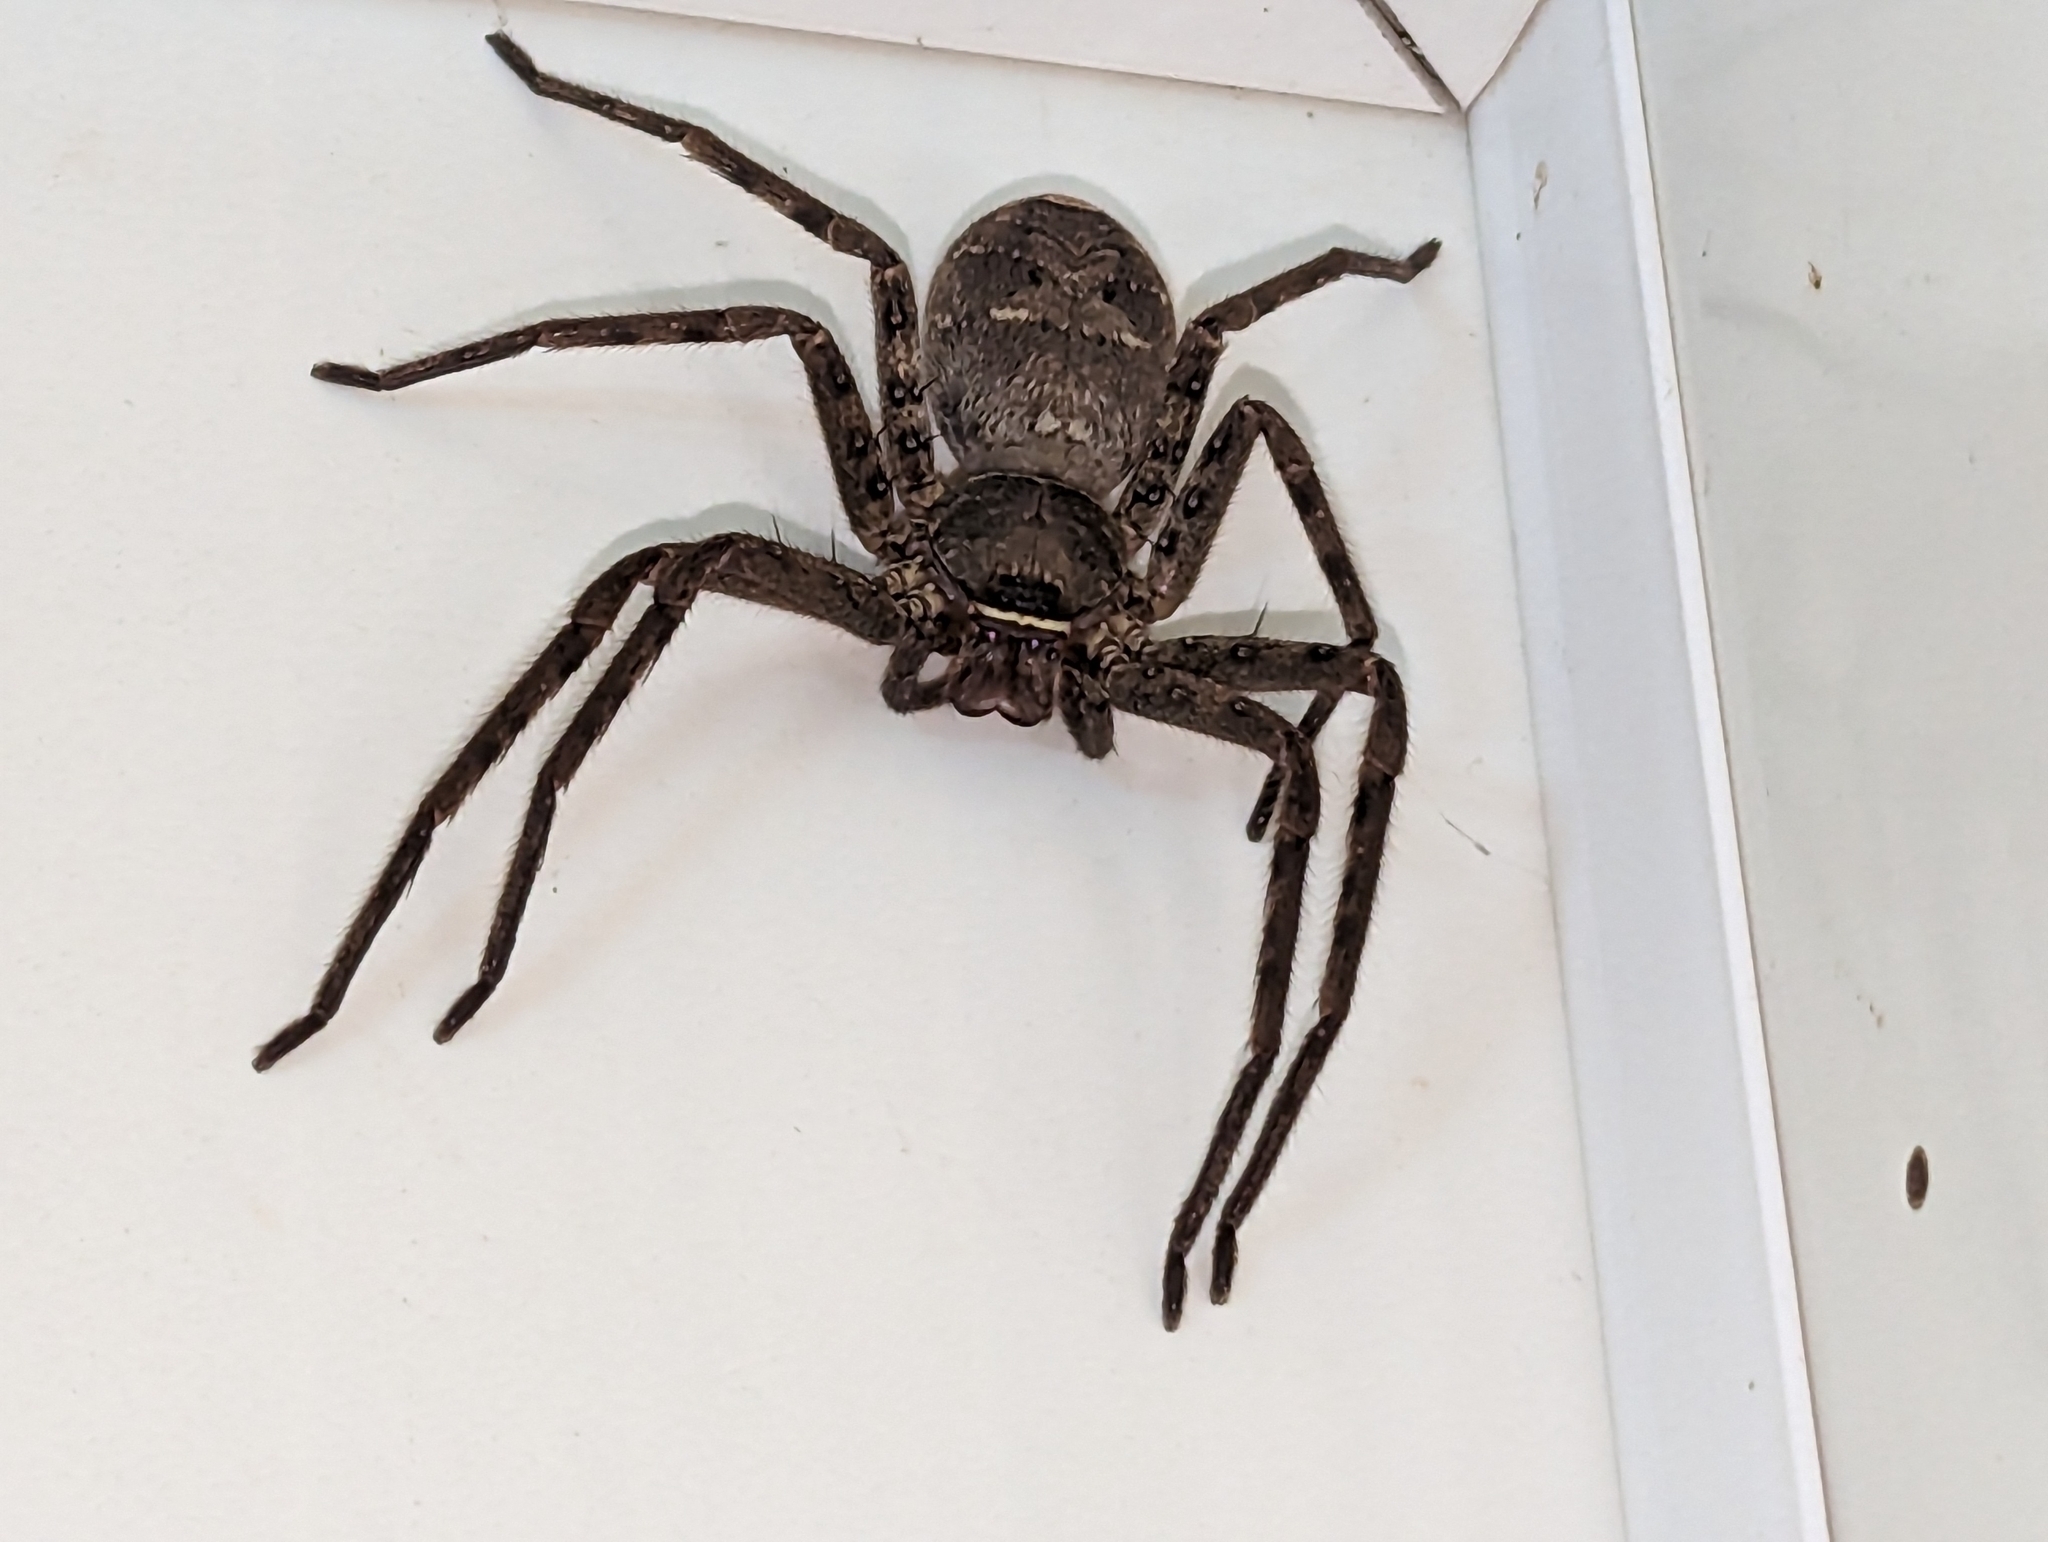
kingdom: Animalia
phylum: Arthropoda
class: Arachnida
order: Araneae
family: Sparassidae
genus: Heteropoda
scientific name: Heteropoda venatoria
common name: Huntsman spider
